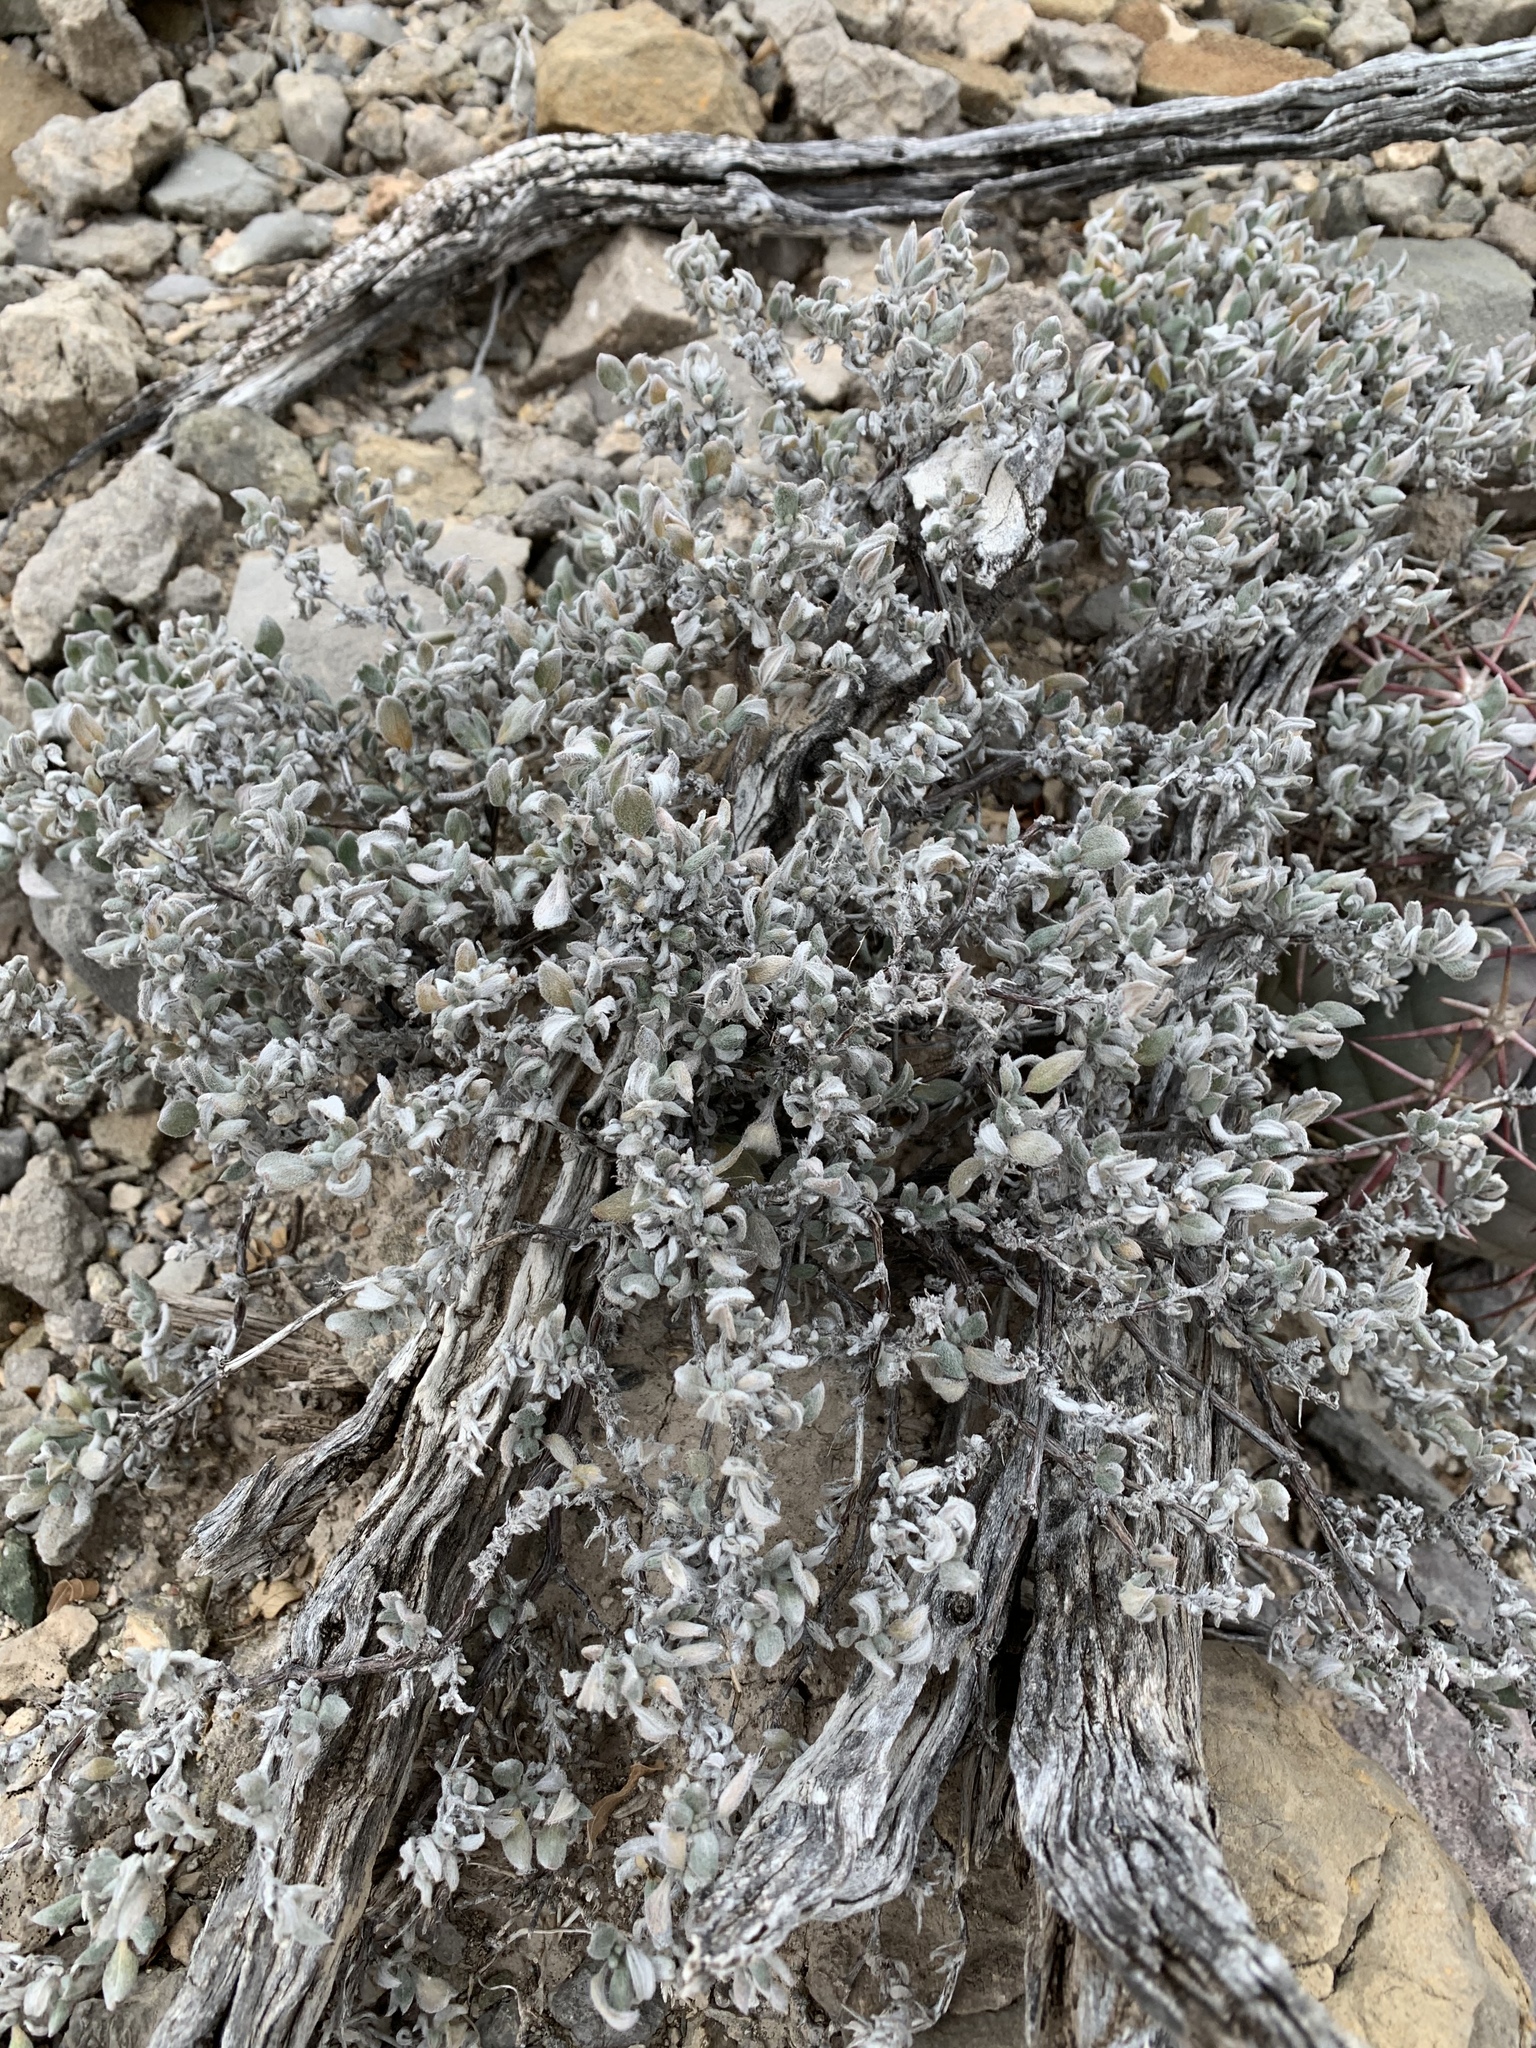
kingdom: Plantae
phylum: Tracheophyta
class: Magnoliopsida
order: Boraginales
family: Ehretiaceae
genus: Tiquilia
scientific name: Tiquilia canescens
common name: Hairy tiquilia
